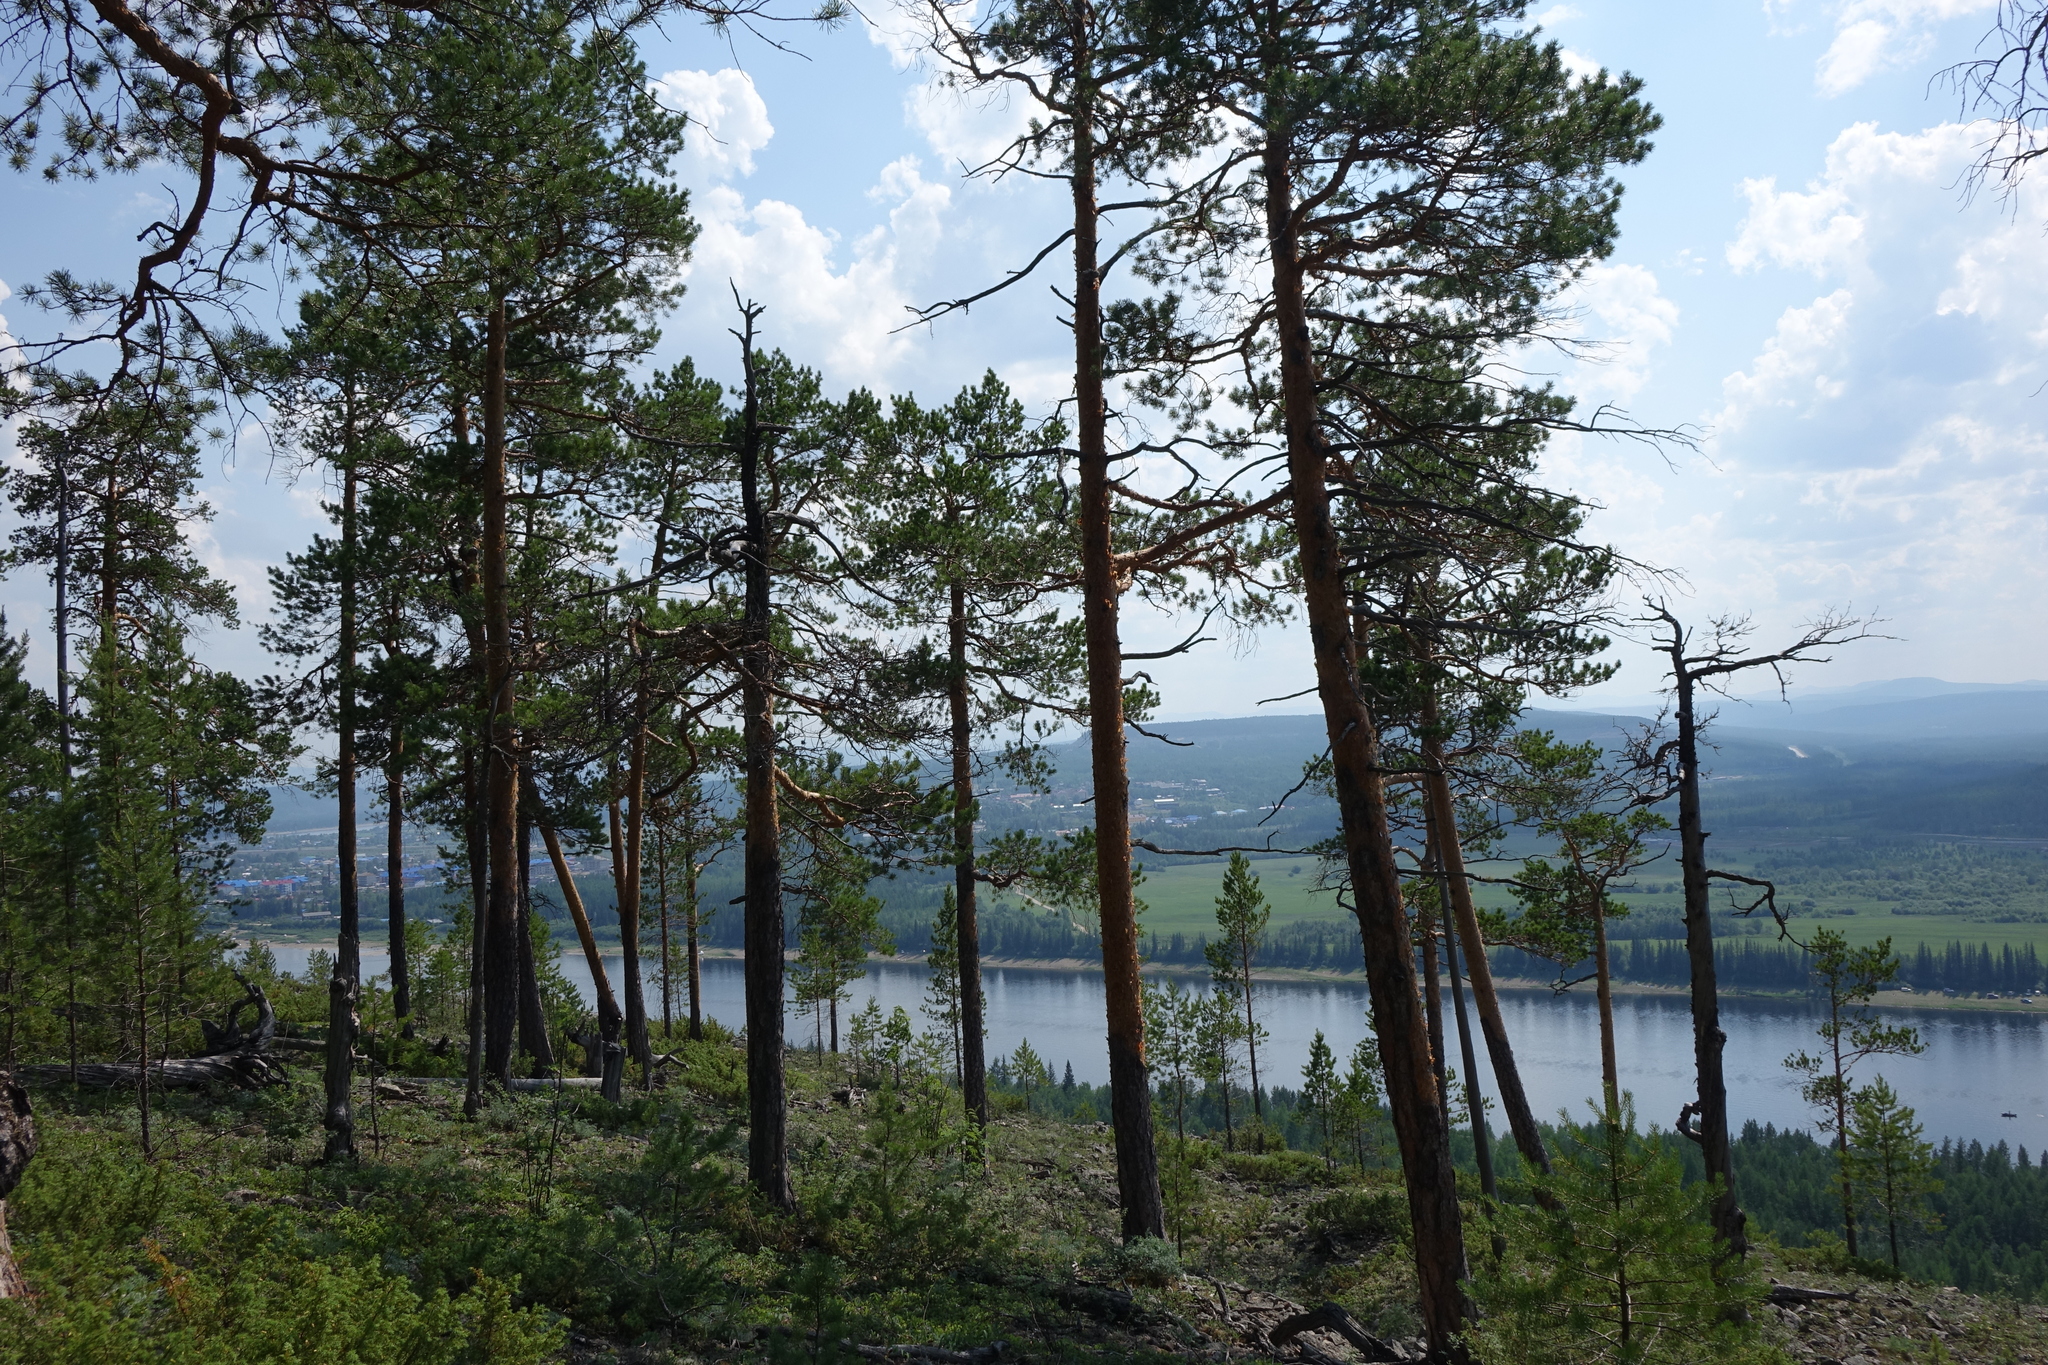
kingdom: Plantae
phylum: Tracheophyta
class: Pinopsida
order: Pinales
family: Pinaceae
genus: Pinus
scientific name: Pinus sylvestris
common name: Scots pine
